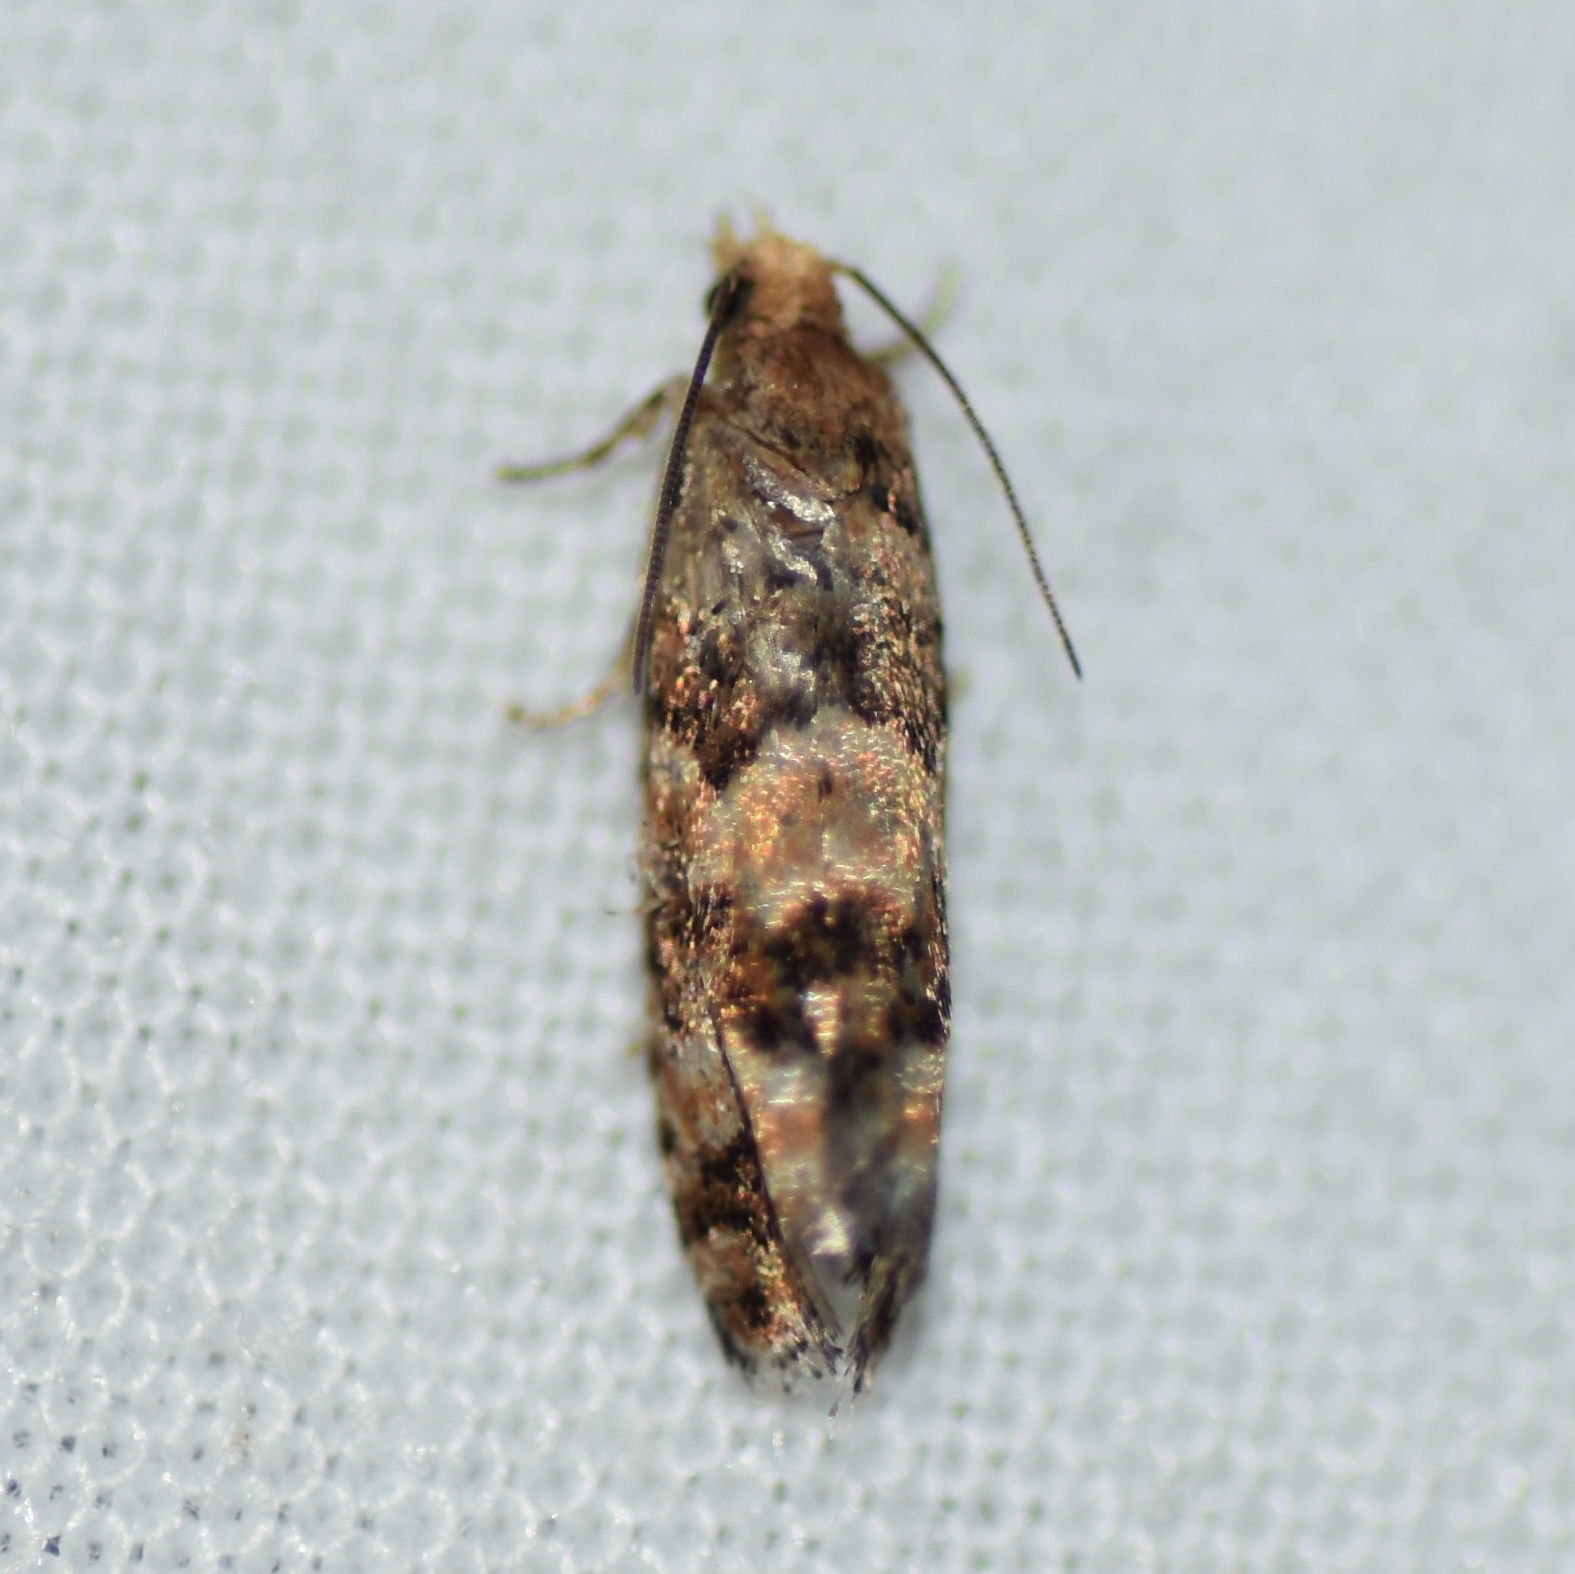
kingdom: Animalia
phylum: Arthropoda
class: Insecta
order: Lepidoptera
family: Tortricidae
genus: Eucopina
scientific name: Eucopina tocullionana
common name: White pinecone borer moth
